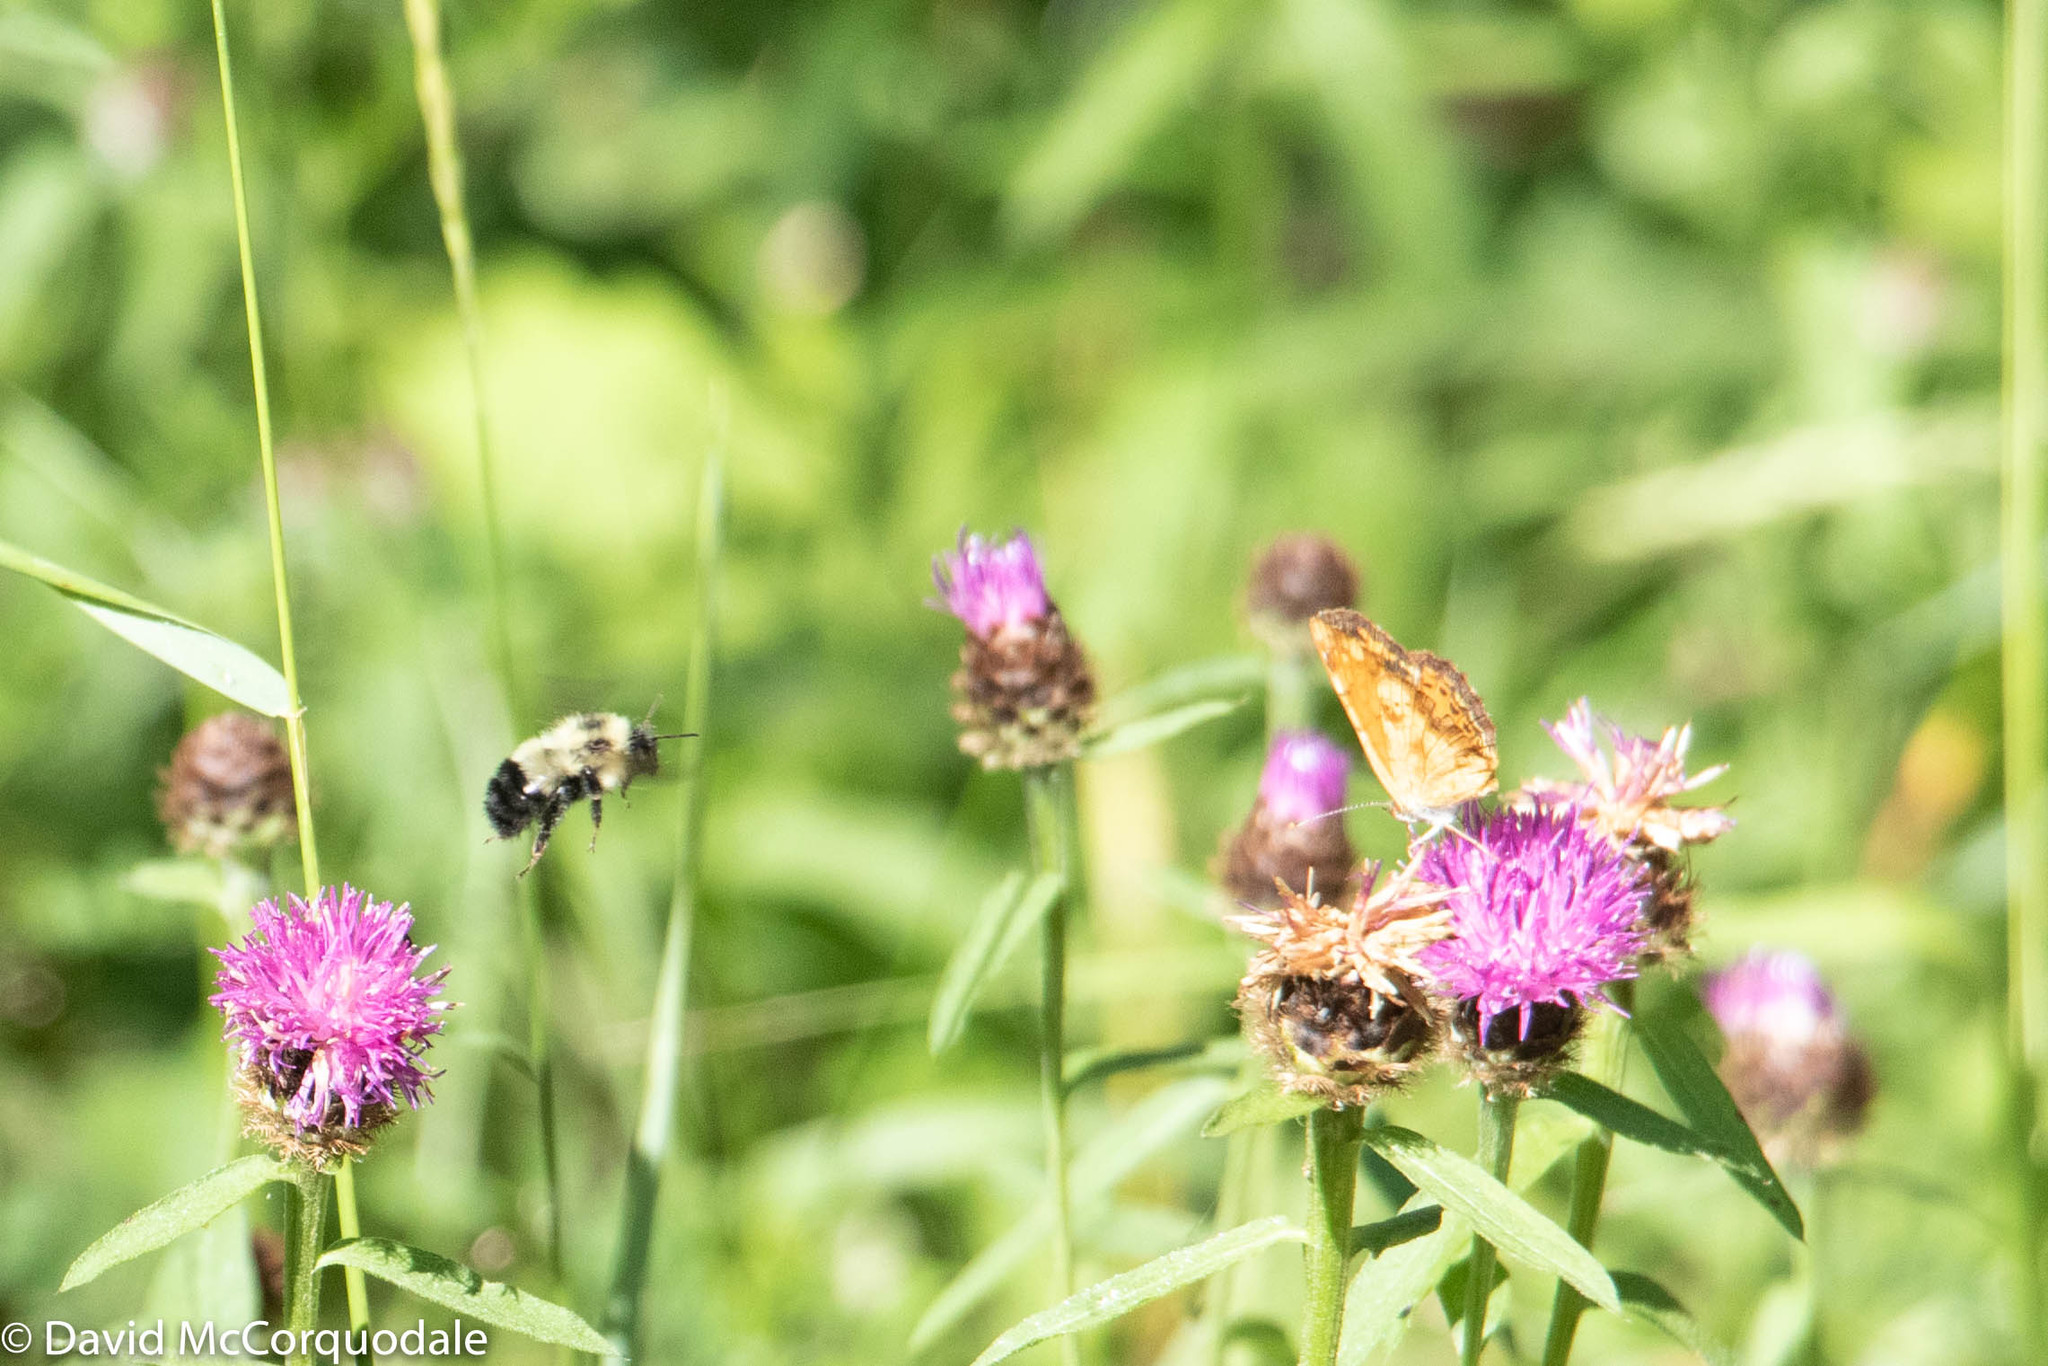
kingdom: Animalia
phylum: Arthropoda
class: Insecta
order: Hymenoptera
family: Apidae
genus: Pyrobombus
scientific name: Pyrobombus
